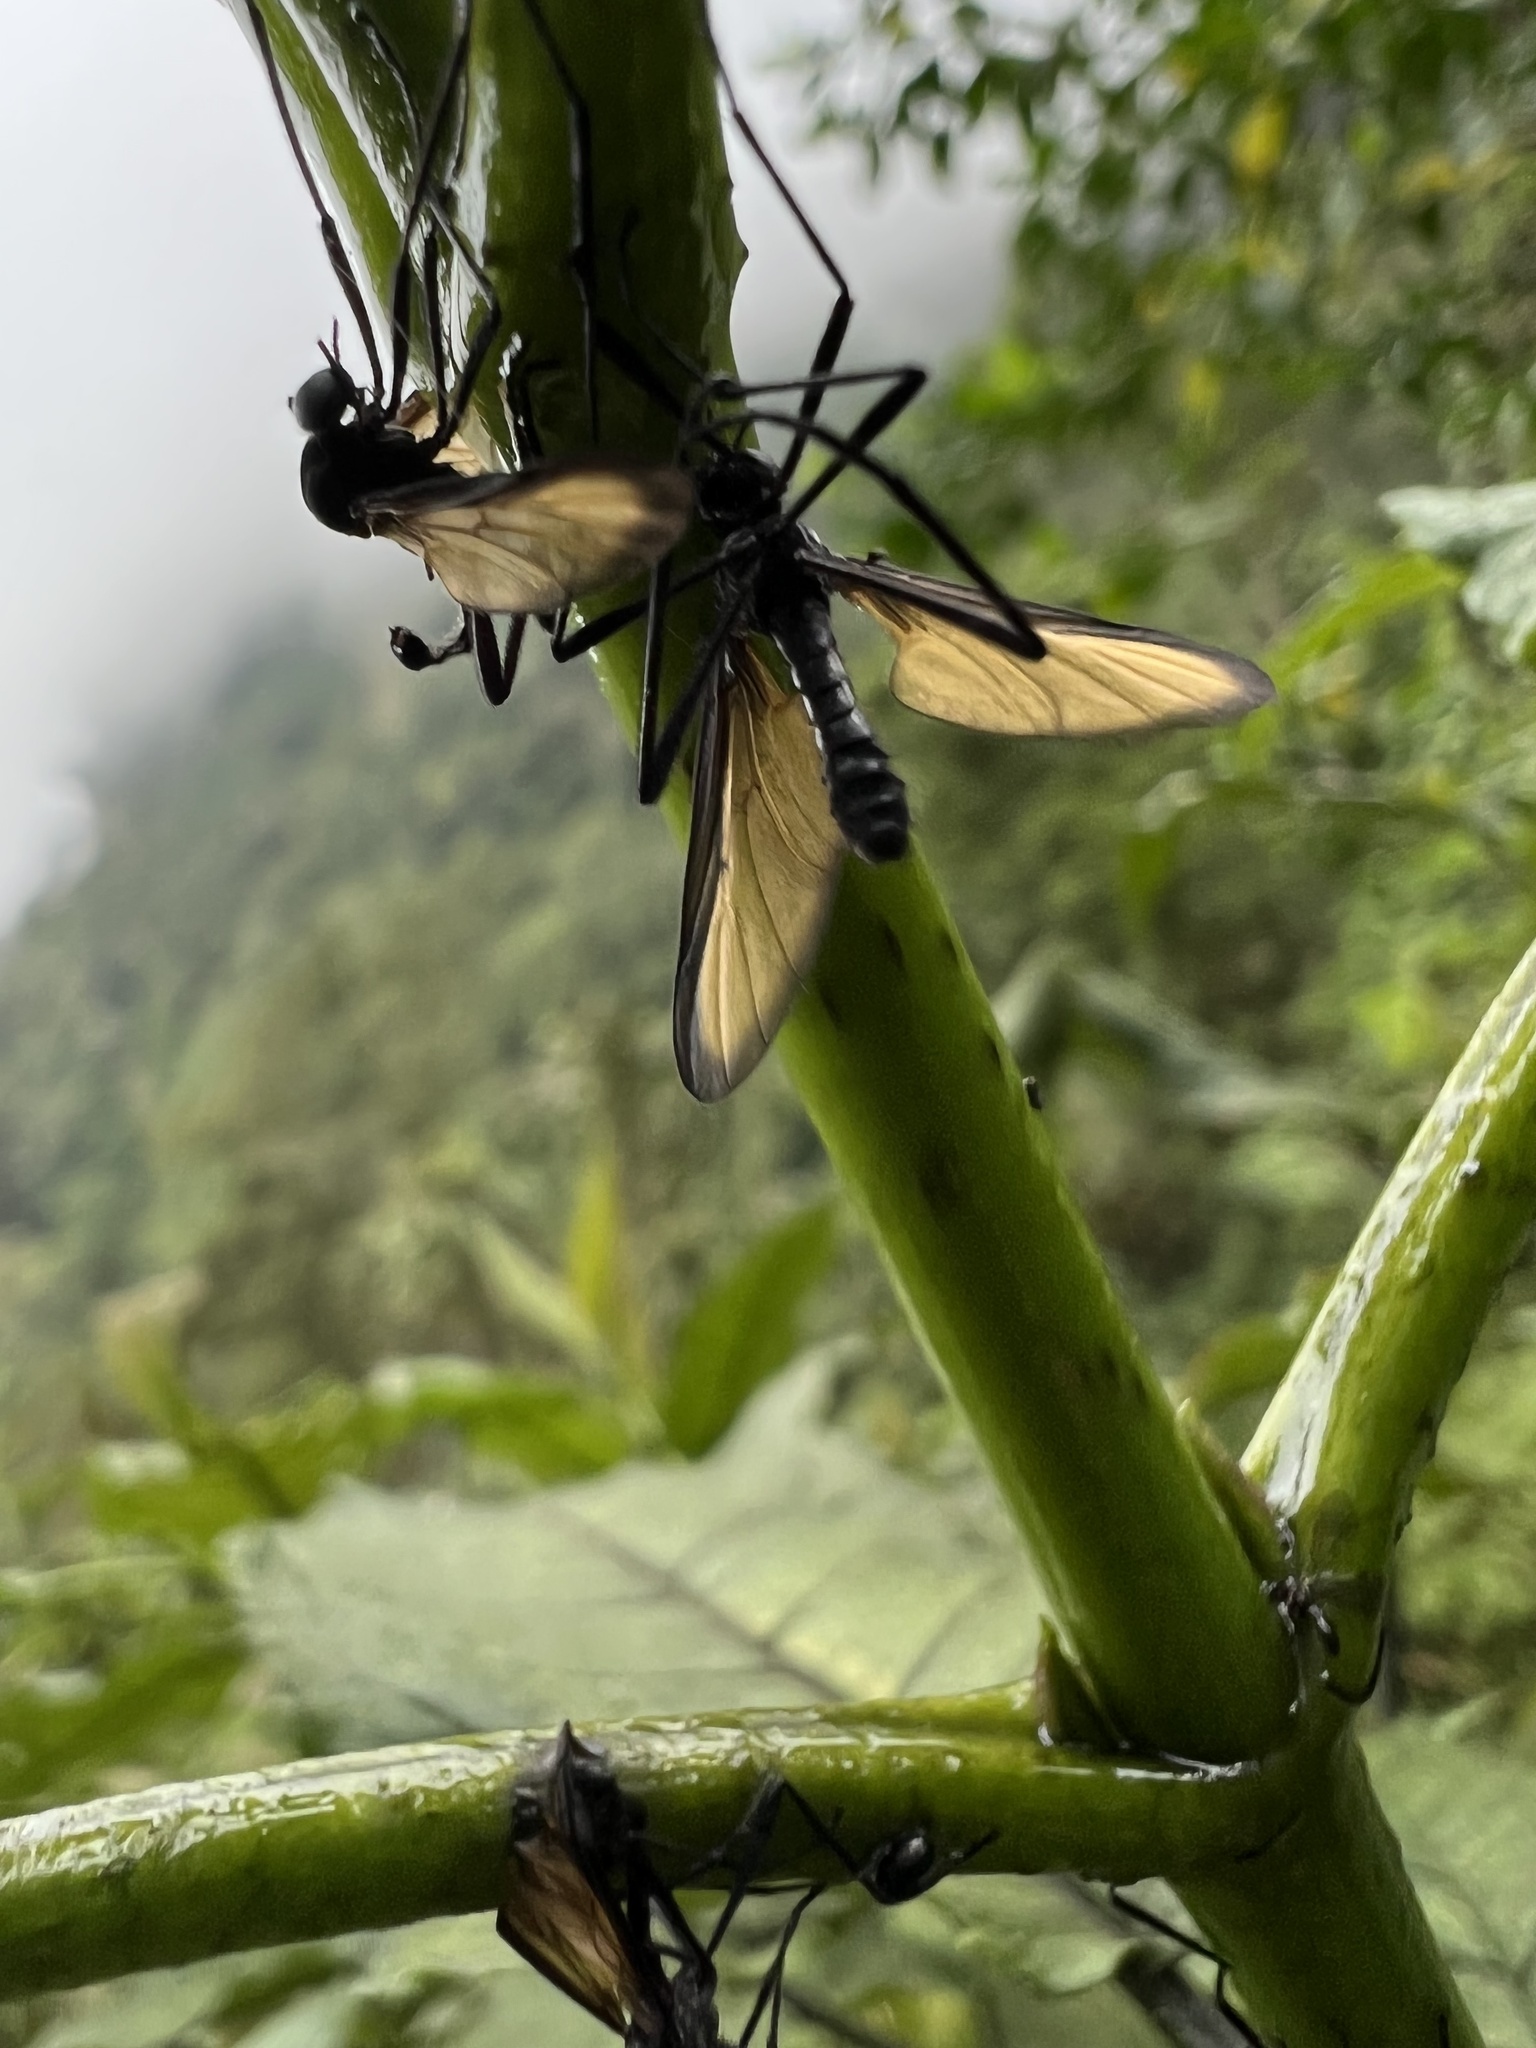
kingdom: Animalia
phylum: Arthropoda
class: Insecta
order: Diptera
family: Bibionidae
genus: Plecia
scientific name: Plecia imperialis
